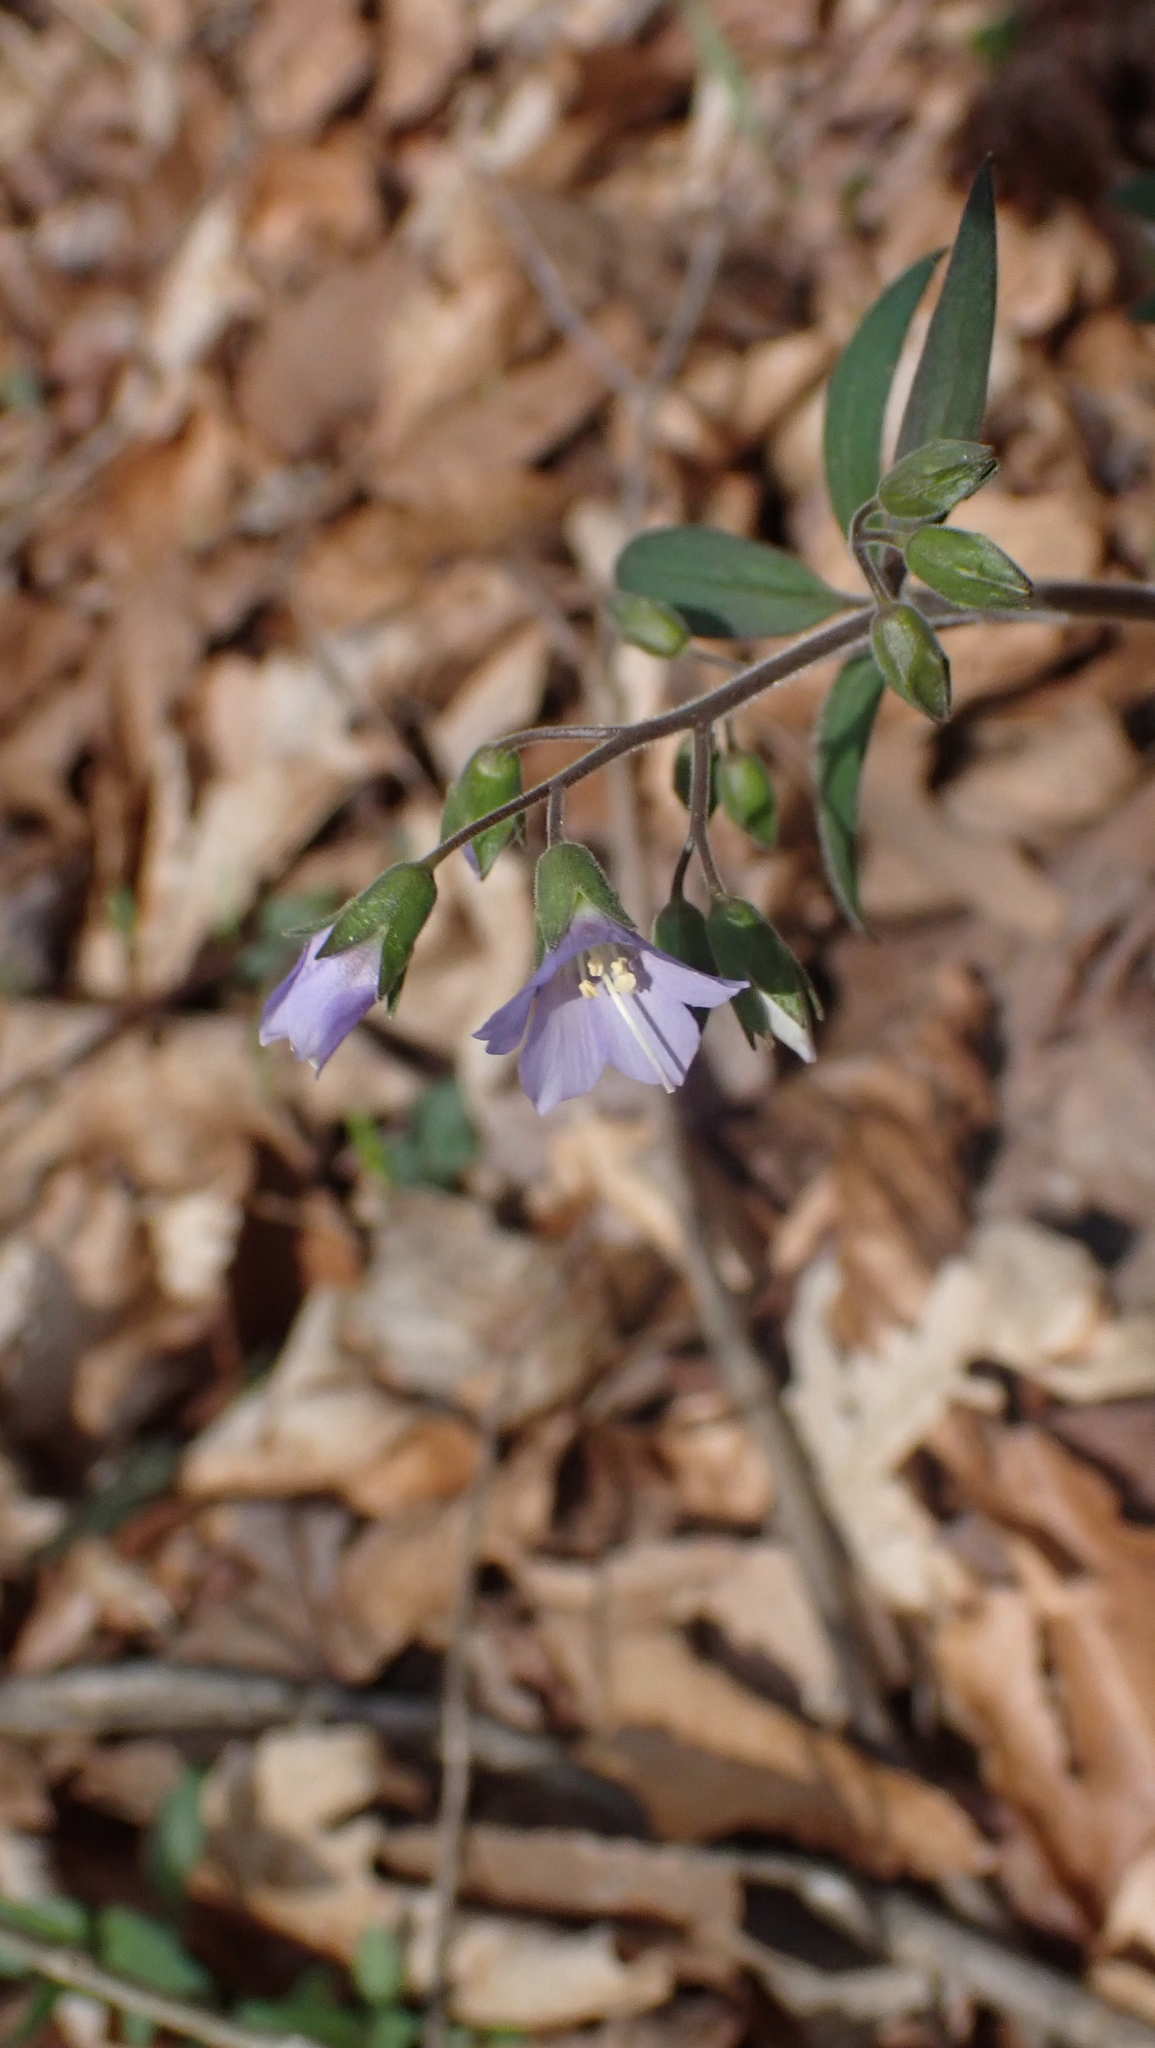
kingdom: Plantae
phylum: Tracheophyta
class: Magnoliopsida
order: Ericales
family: Polemoniaceae
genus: Polemonium
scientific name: Polemonium reptans
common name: Creeping jacob's-ladder
